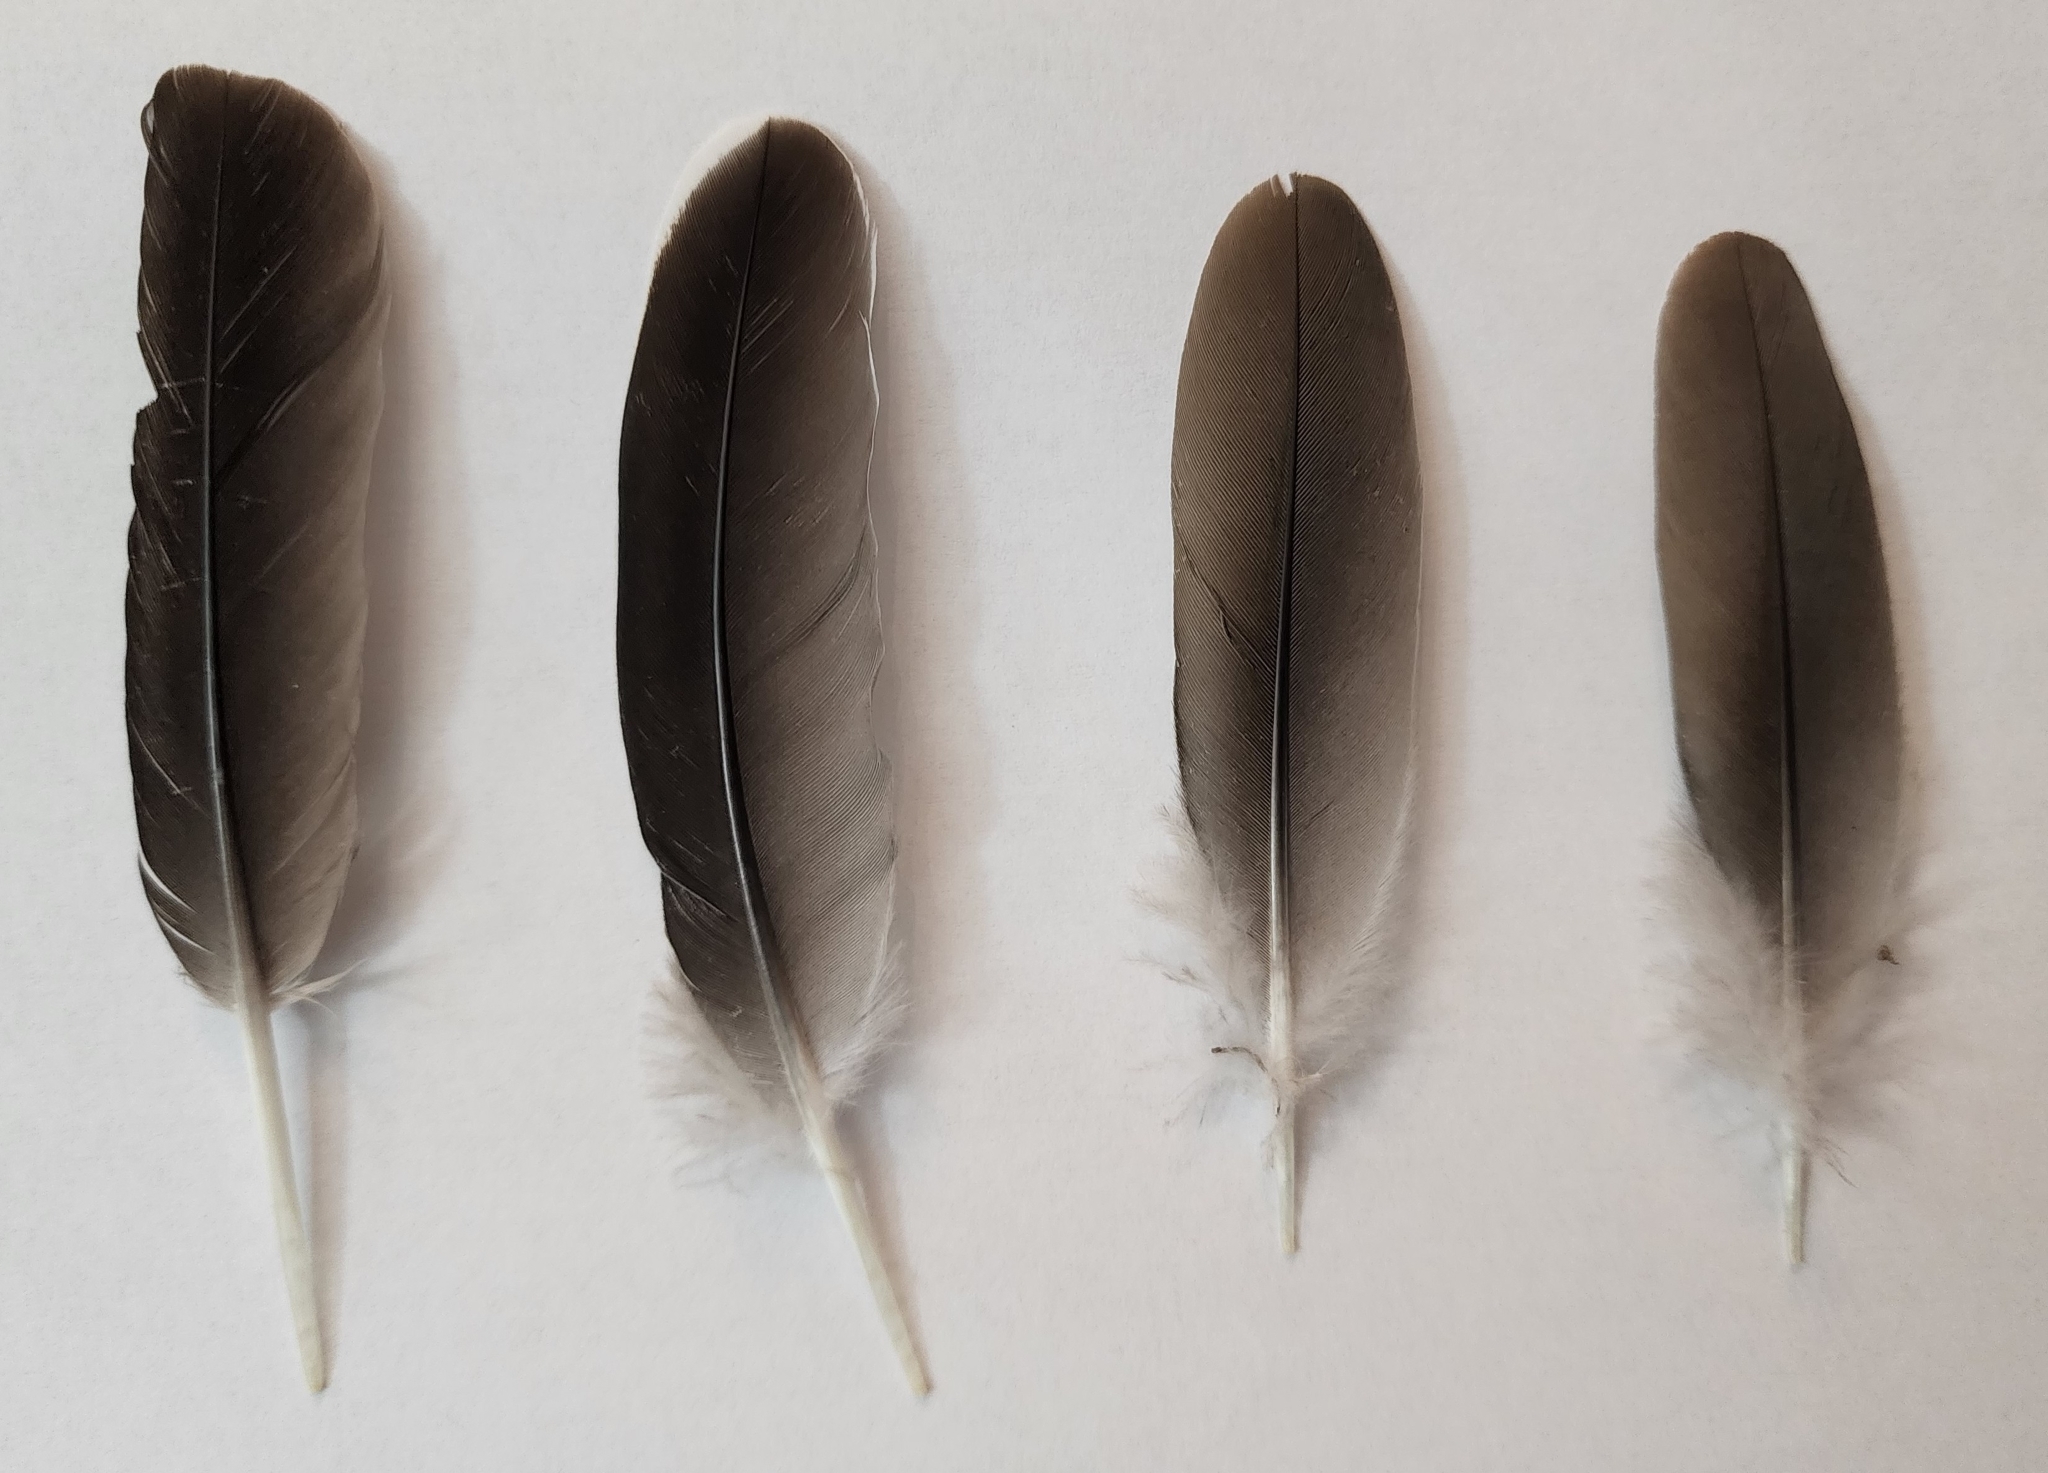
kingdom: Animalia
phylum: Chordata
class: Aves
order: Columbiformes
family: Columbidae
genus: Zenaida
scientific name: Zenaida asiatica
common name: White-winged dove
